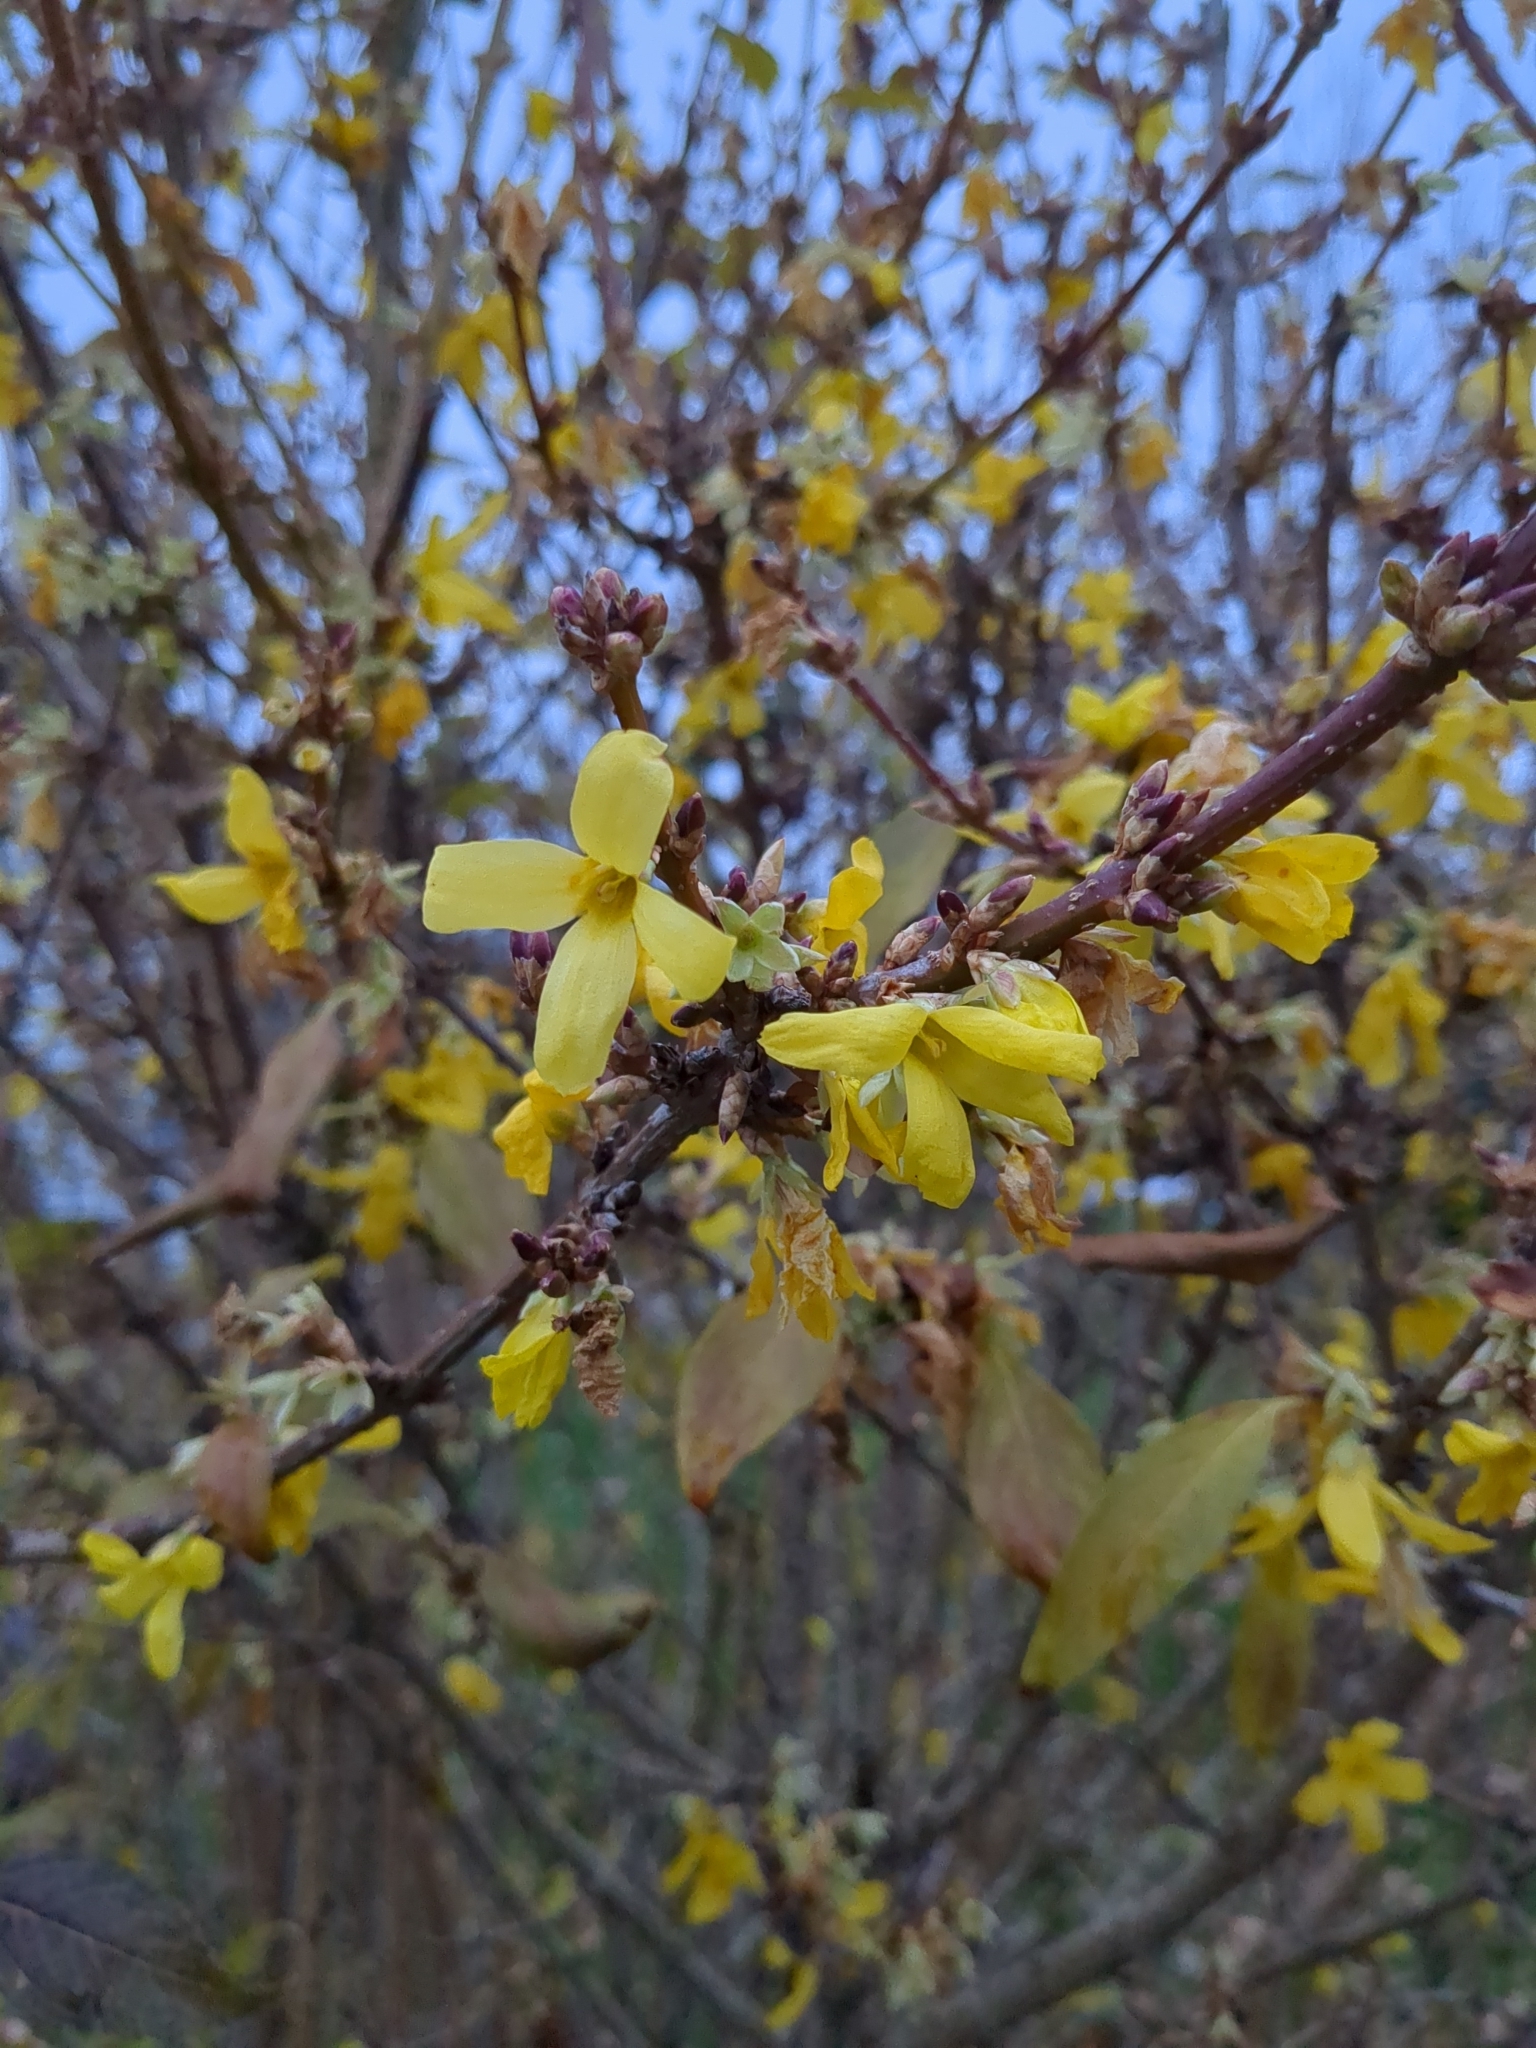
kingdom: Plantae
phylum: Tracheophyta
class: Magnoliopsida
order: Lamiales
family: Oleaceae
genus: Forsythia
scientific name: Forsythia suspensa
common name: Weeping forsythia
